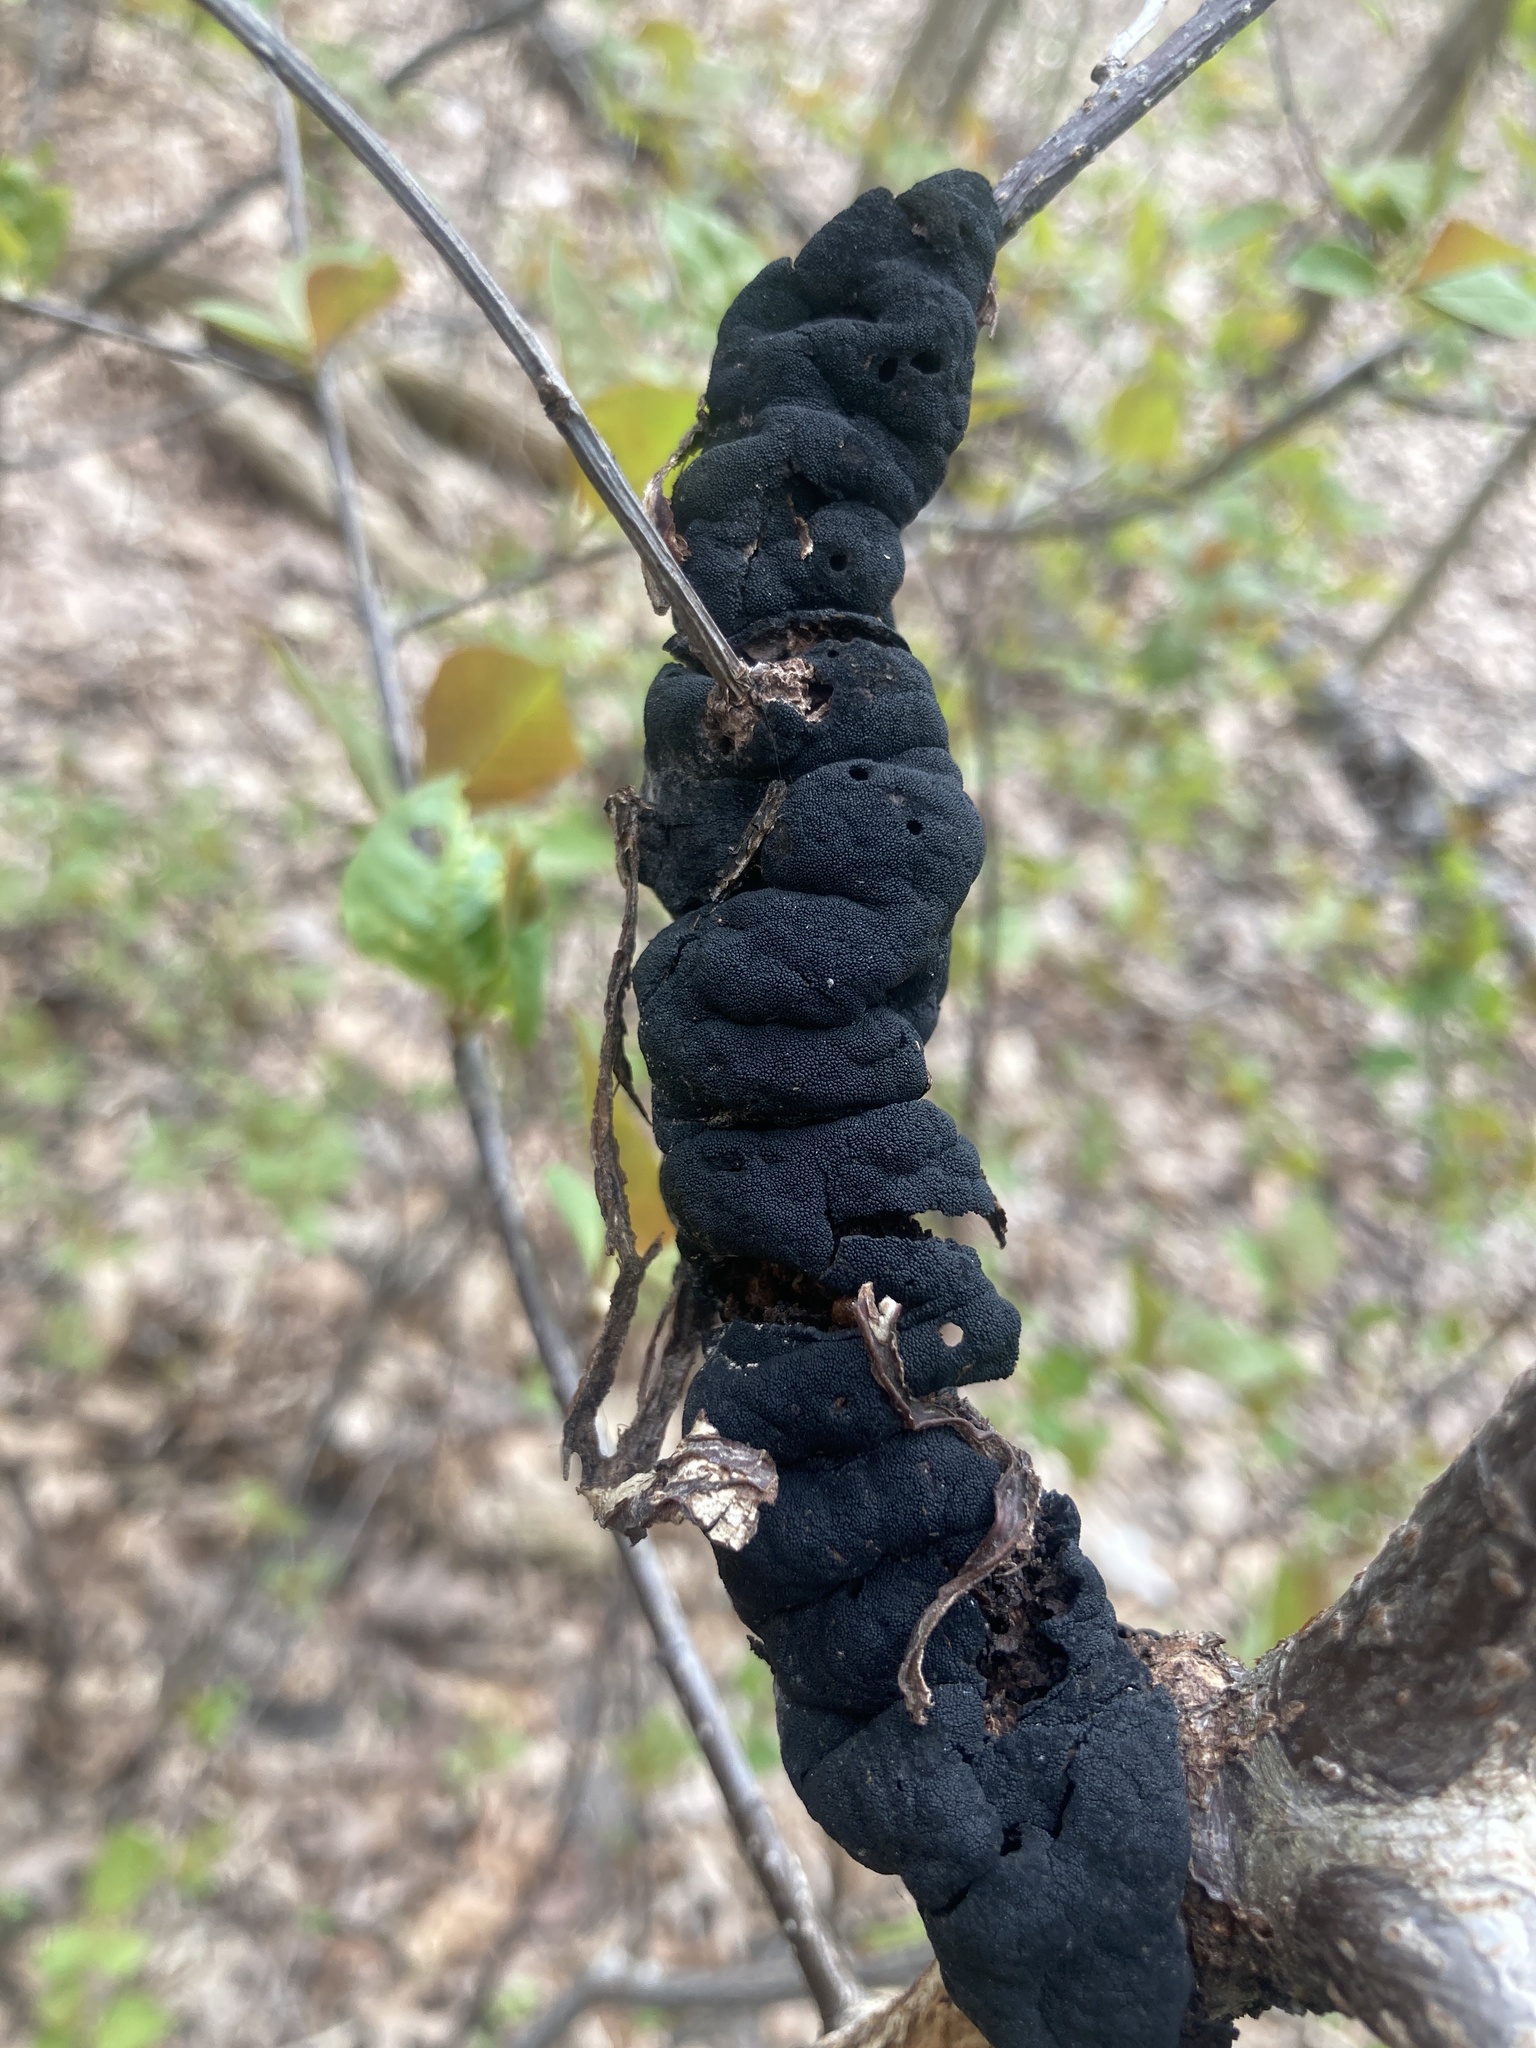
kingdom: Fungi
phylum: Ascomycota
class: Dothideomycetes
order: Venturiales
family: Venturiaceae
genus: Apiosporina
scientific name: Apiosporina morbosa
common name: Black knot
